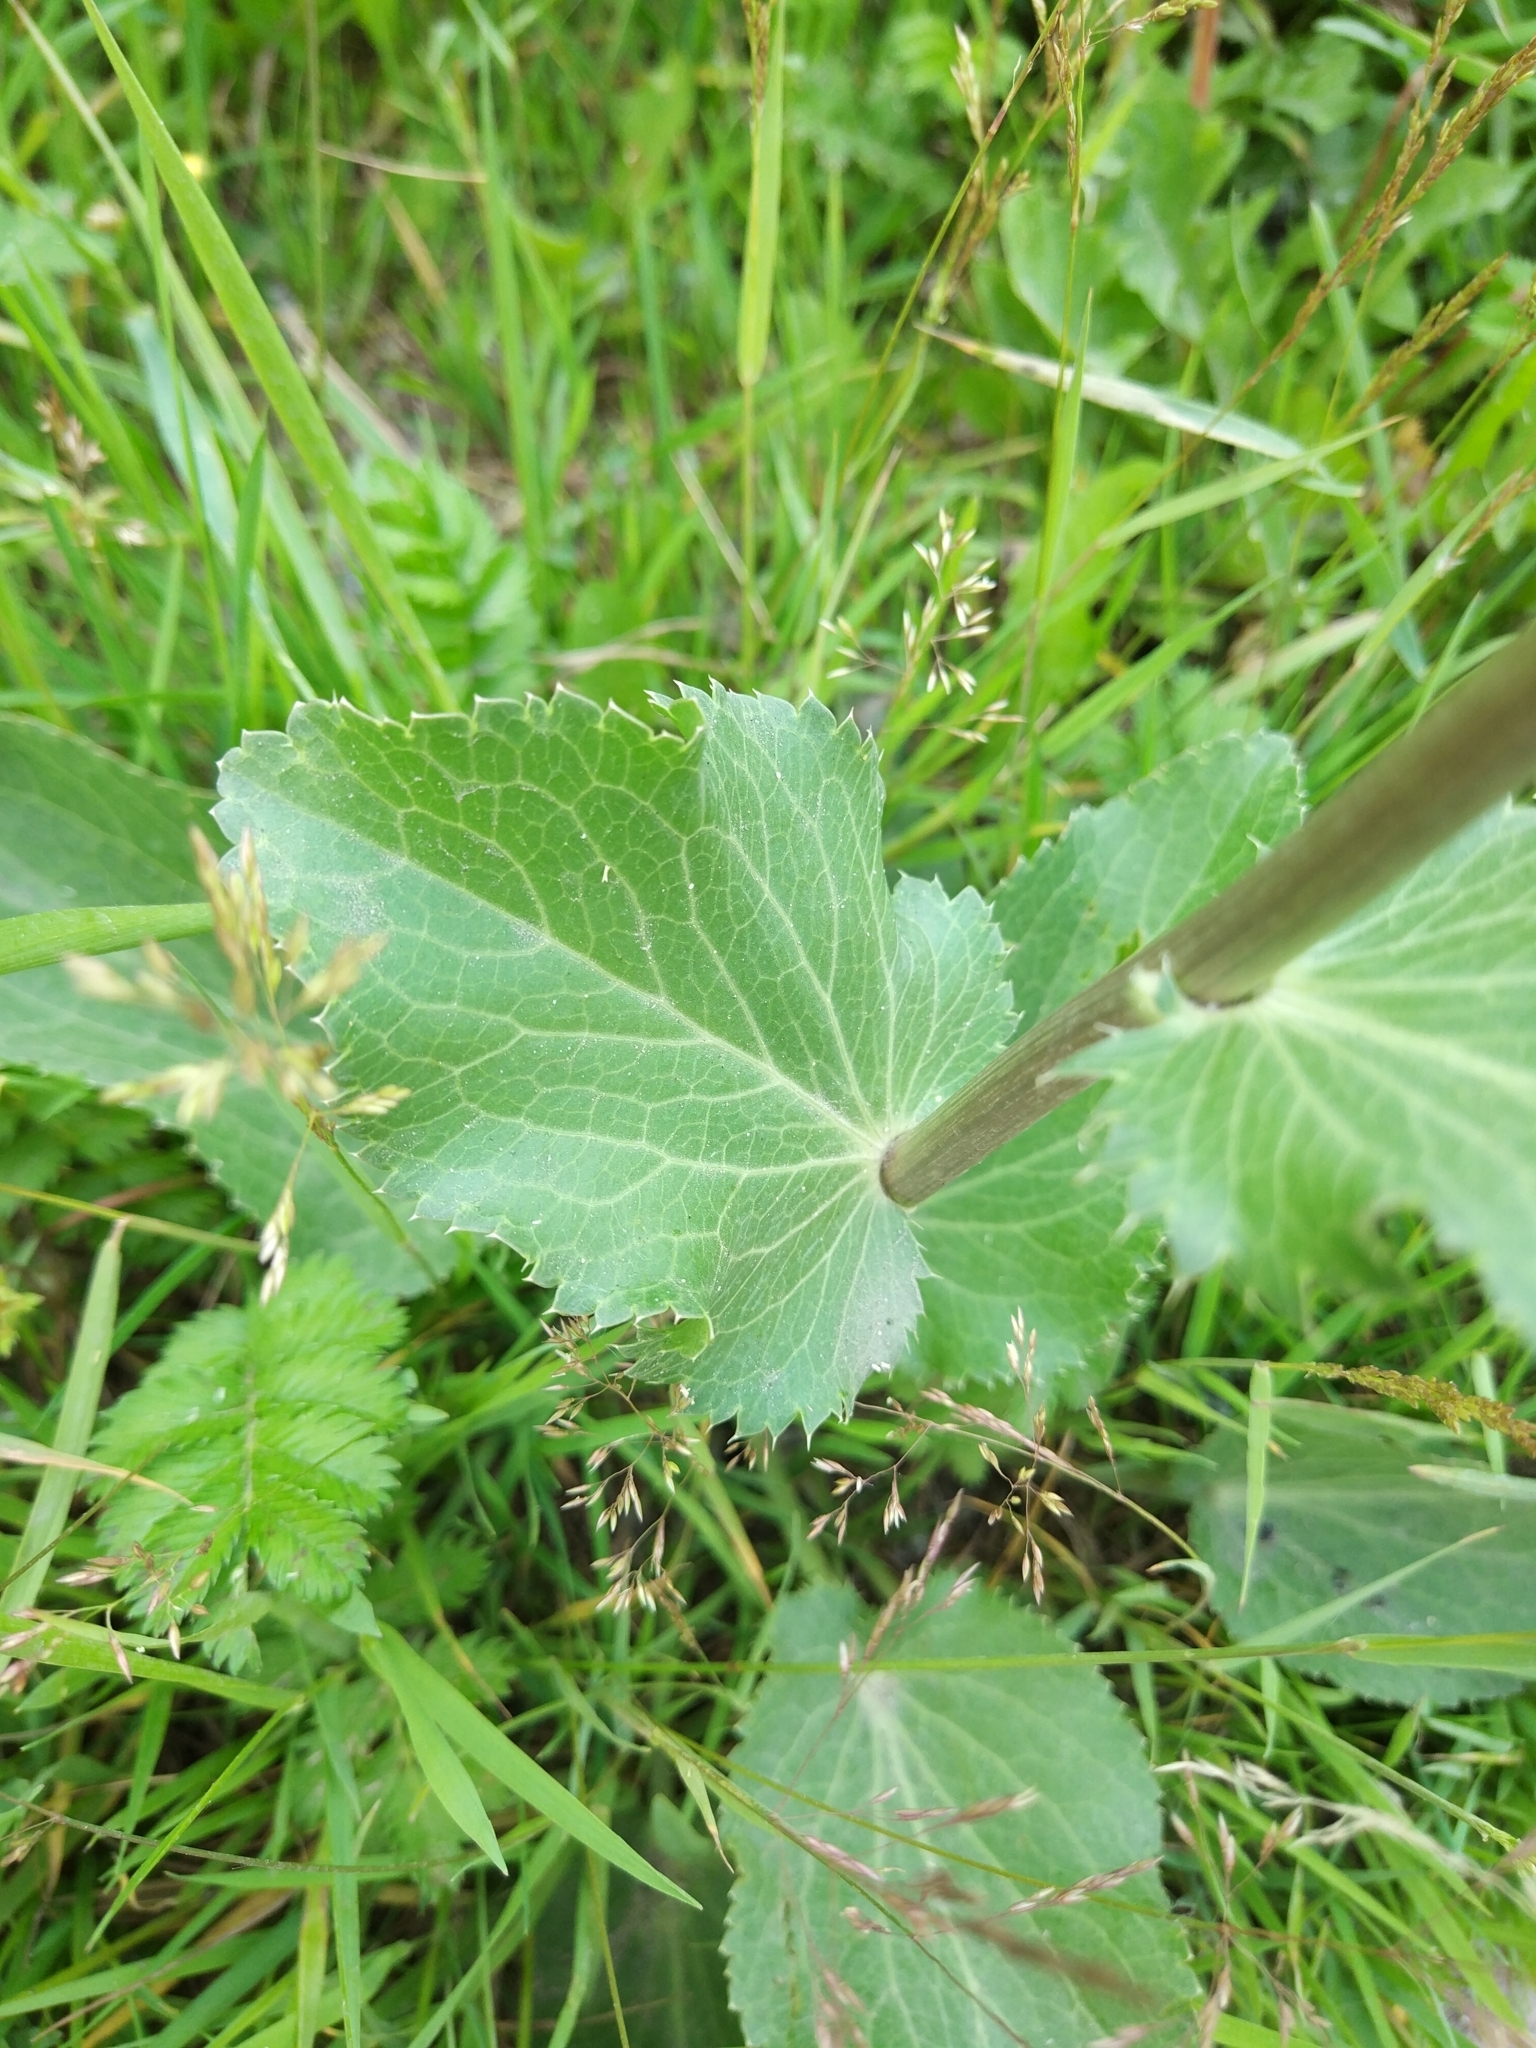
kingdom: Plantae
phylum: Tracheophyta
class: Magnoliopsida
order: Apiales
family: Apiaceae
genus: Eryngium
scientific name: Eryngium planum
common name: Blue eryngo
